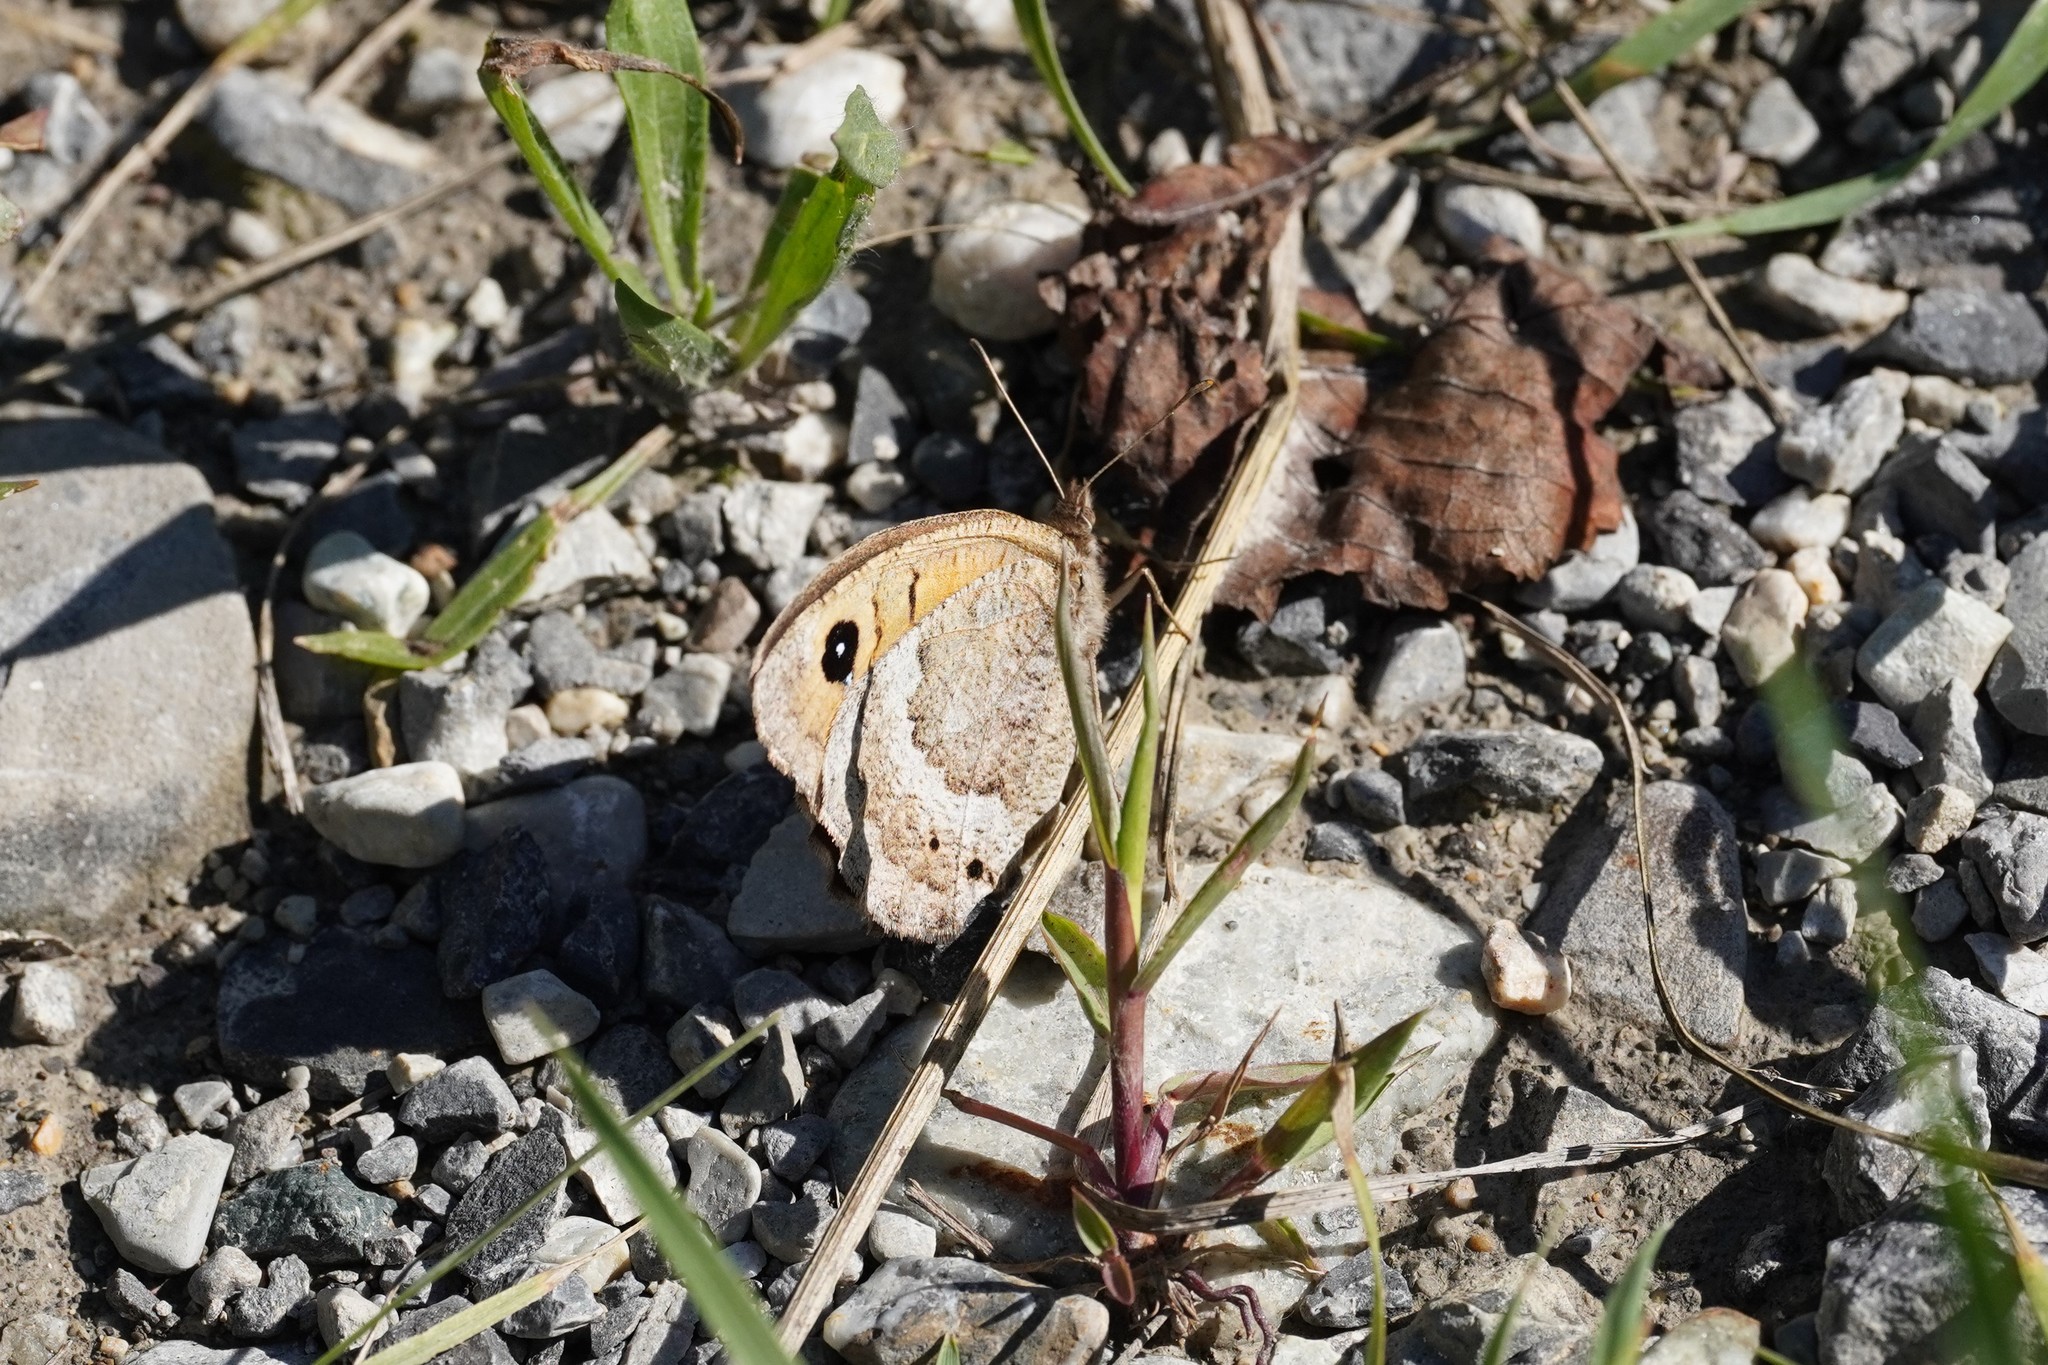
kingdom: Animalia
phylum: Arthropoda
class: Insecta
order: Lepidoptera
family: Nymphalidae
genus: Satyrus
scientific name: Satyrus ferula
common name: Great sooty satyr
